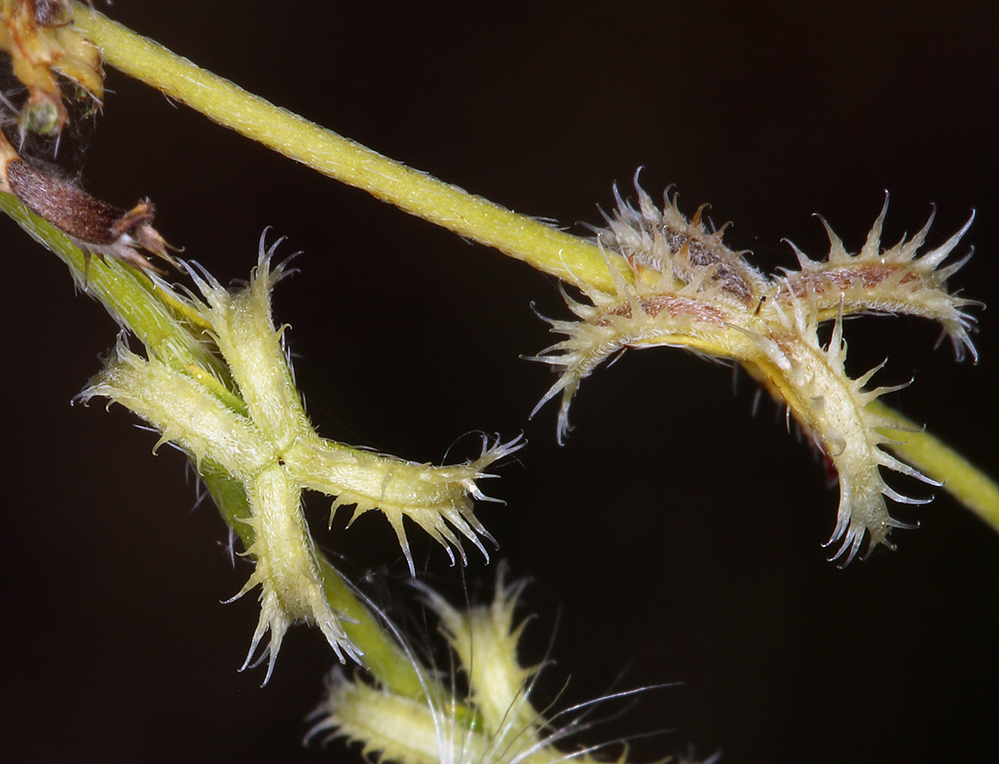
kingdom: Plantae
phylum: Tracheophyta
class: Magnoliopsida
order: Boraginales
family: Boraginaceae
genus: Pectocarya
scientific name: Pectocarya recurvata
